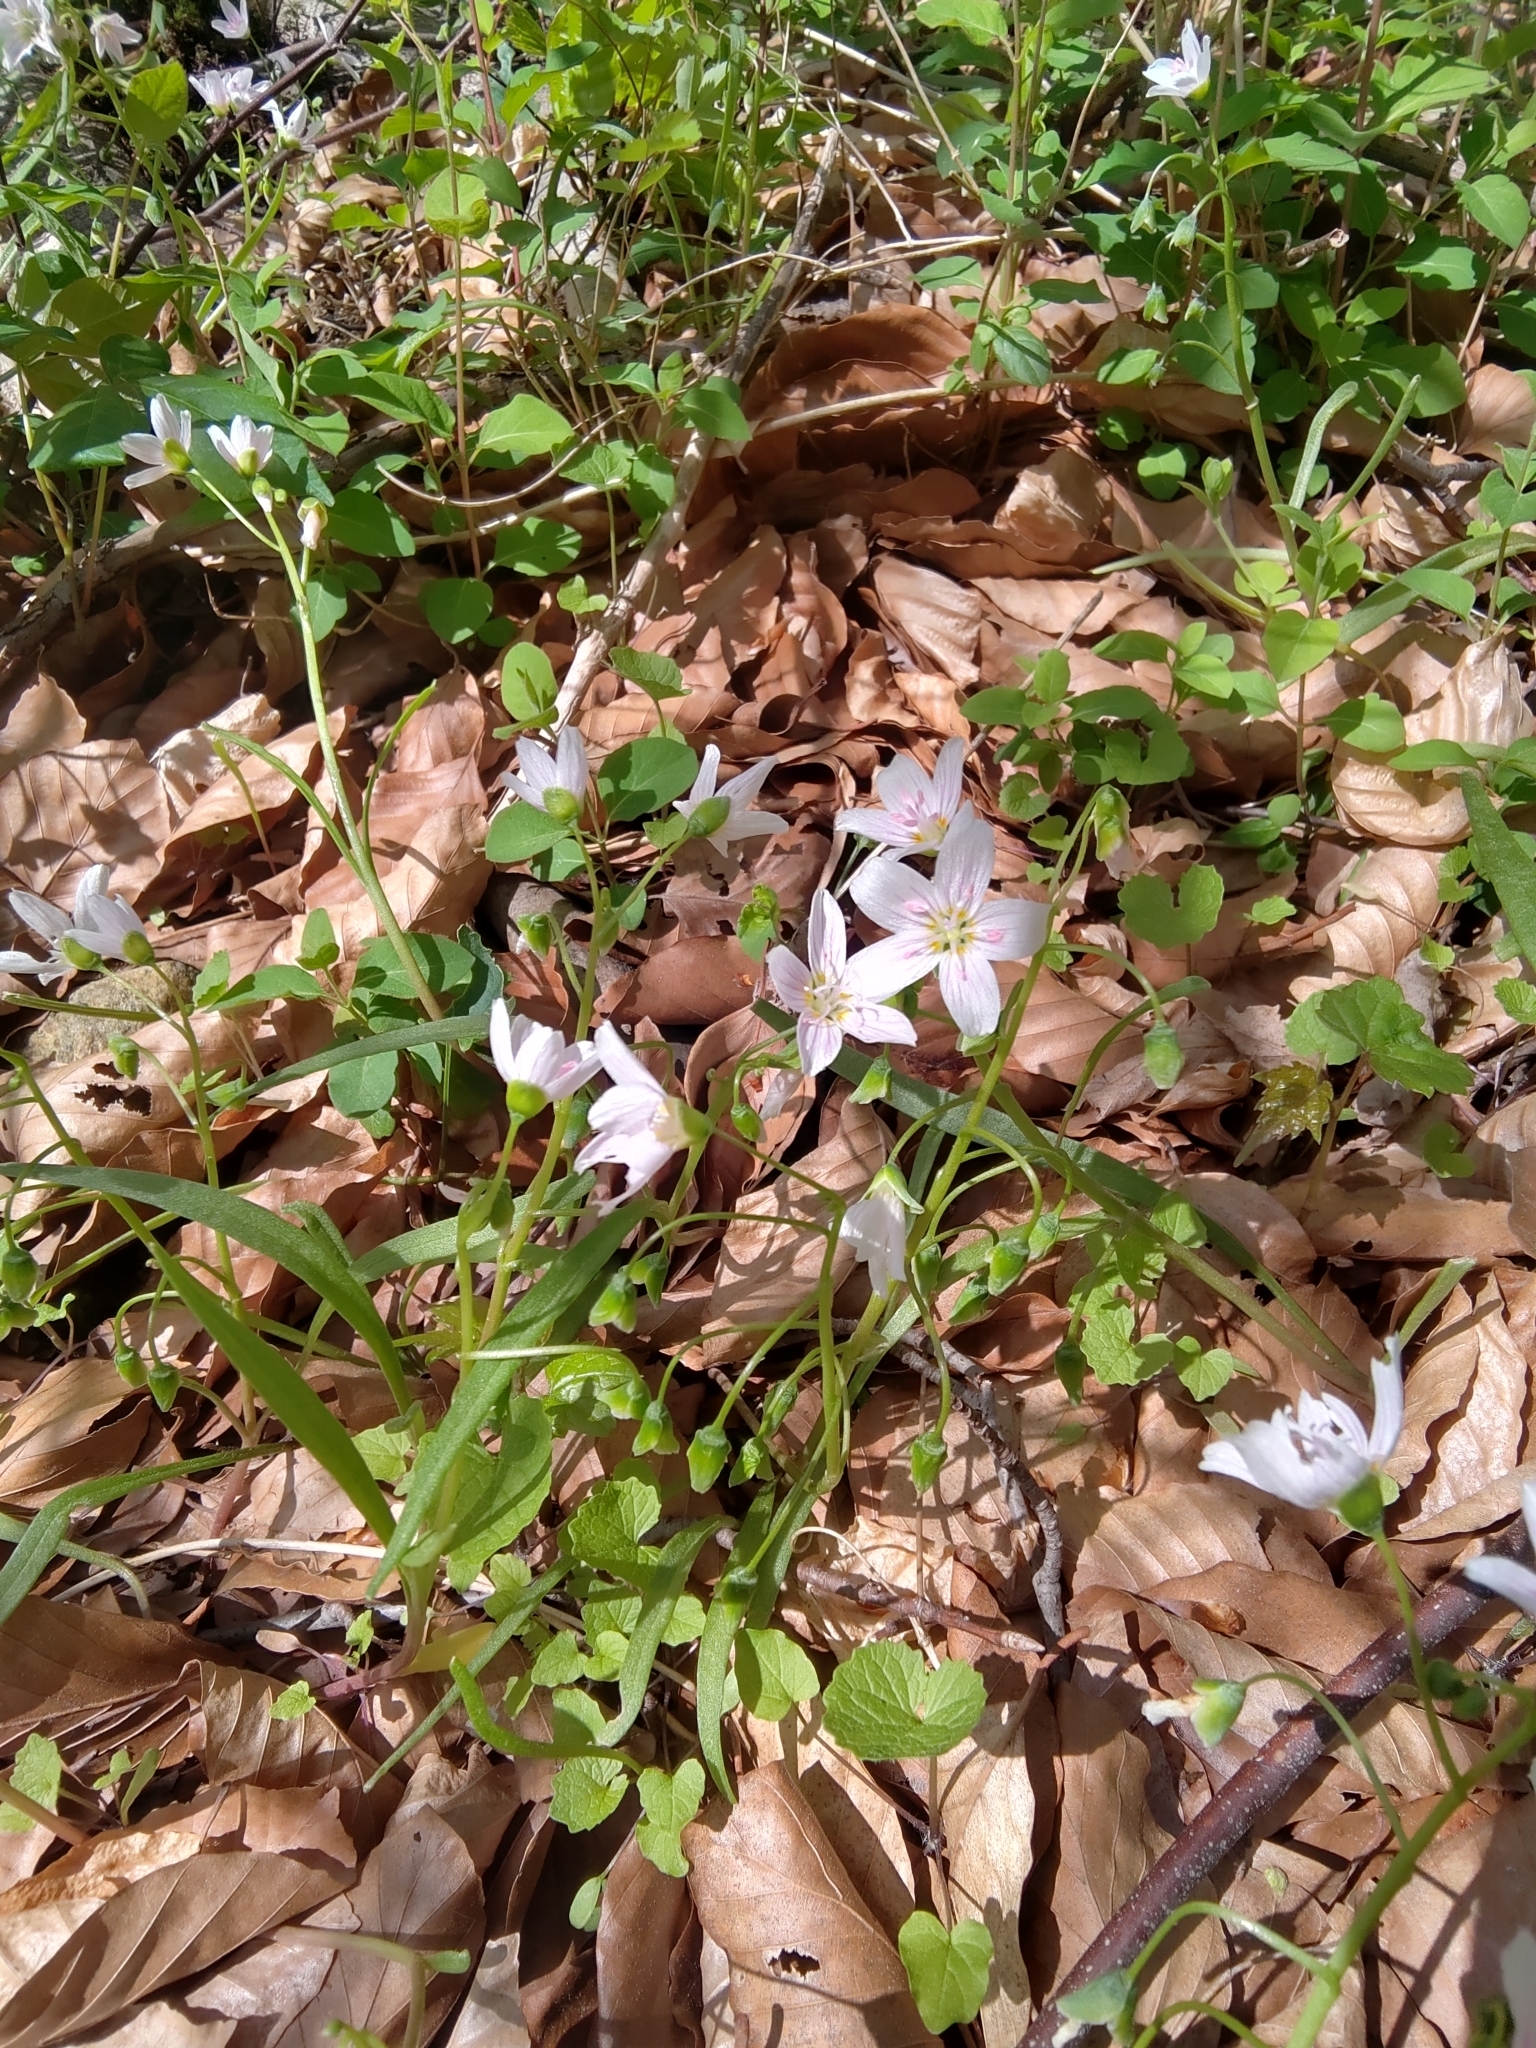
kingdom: Plantae
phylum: Tracheophyta
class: Magnoliopsida
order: Caryophyllales
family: Montiaceae
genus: Claytonia
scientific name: Claytonia virginica
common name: Virginia springbeauty
